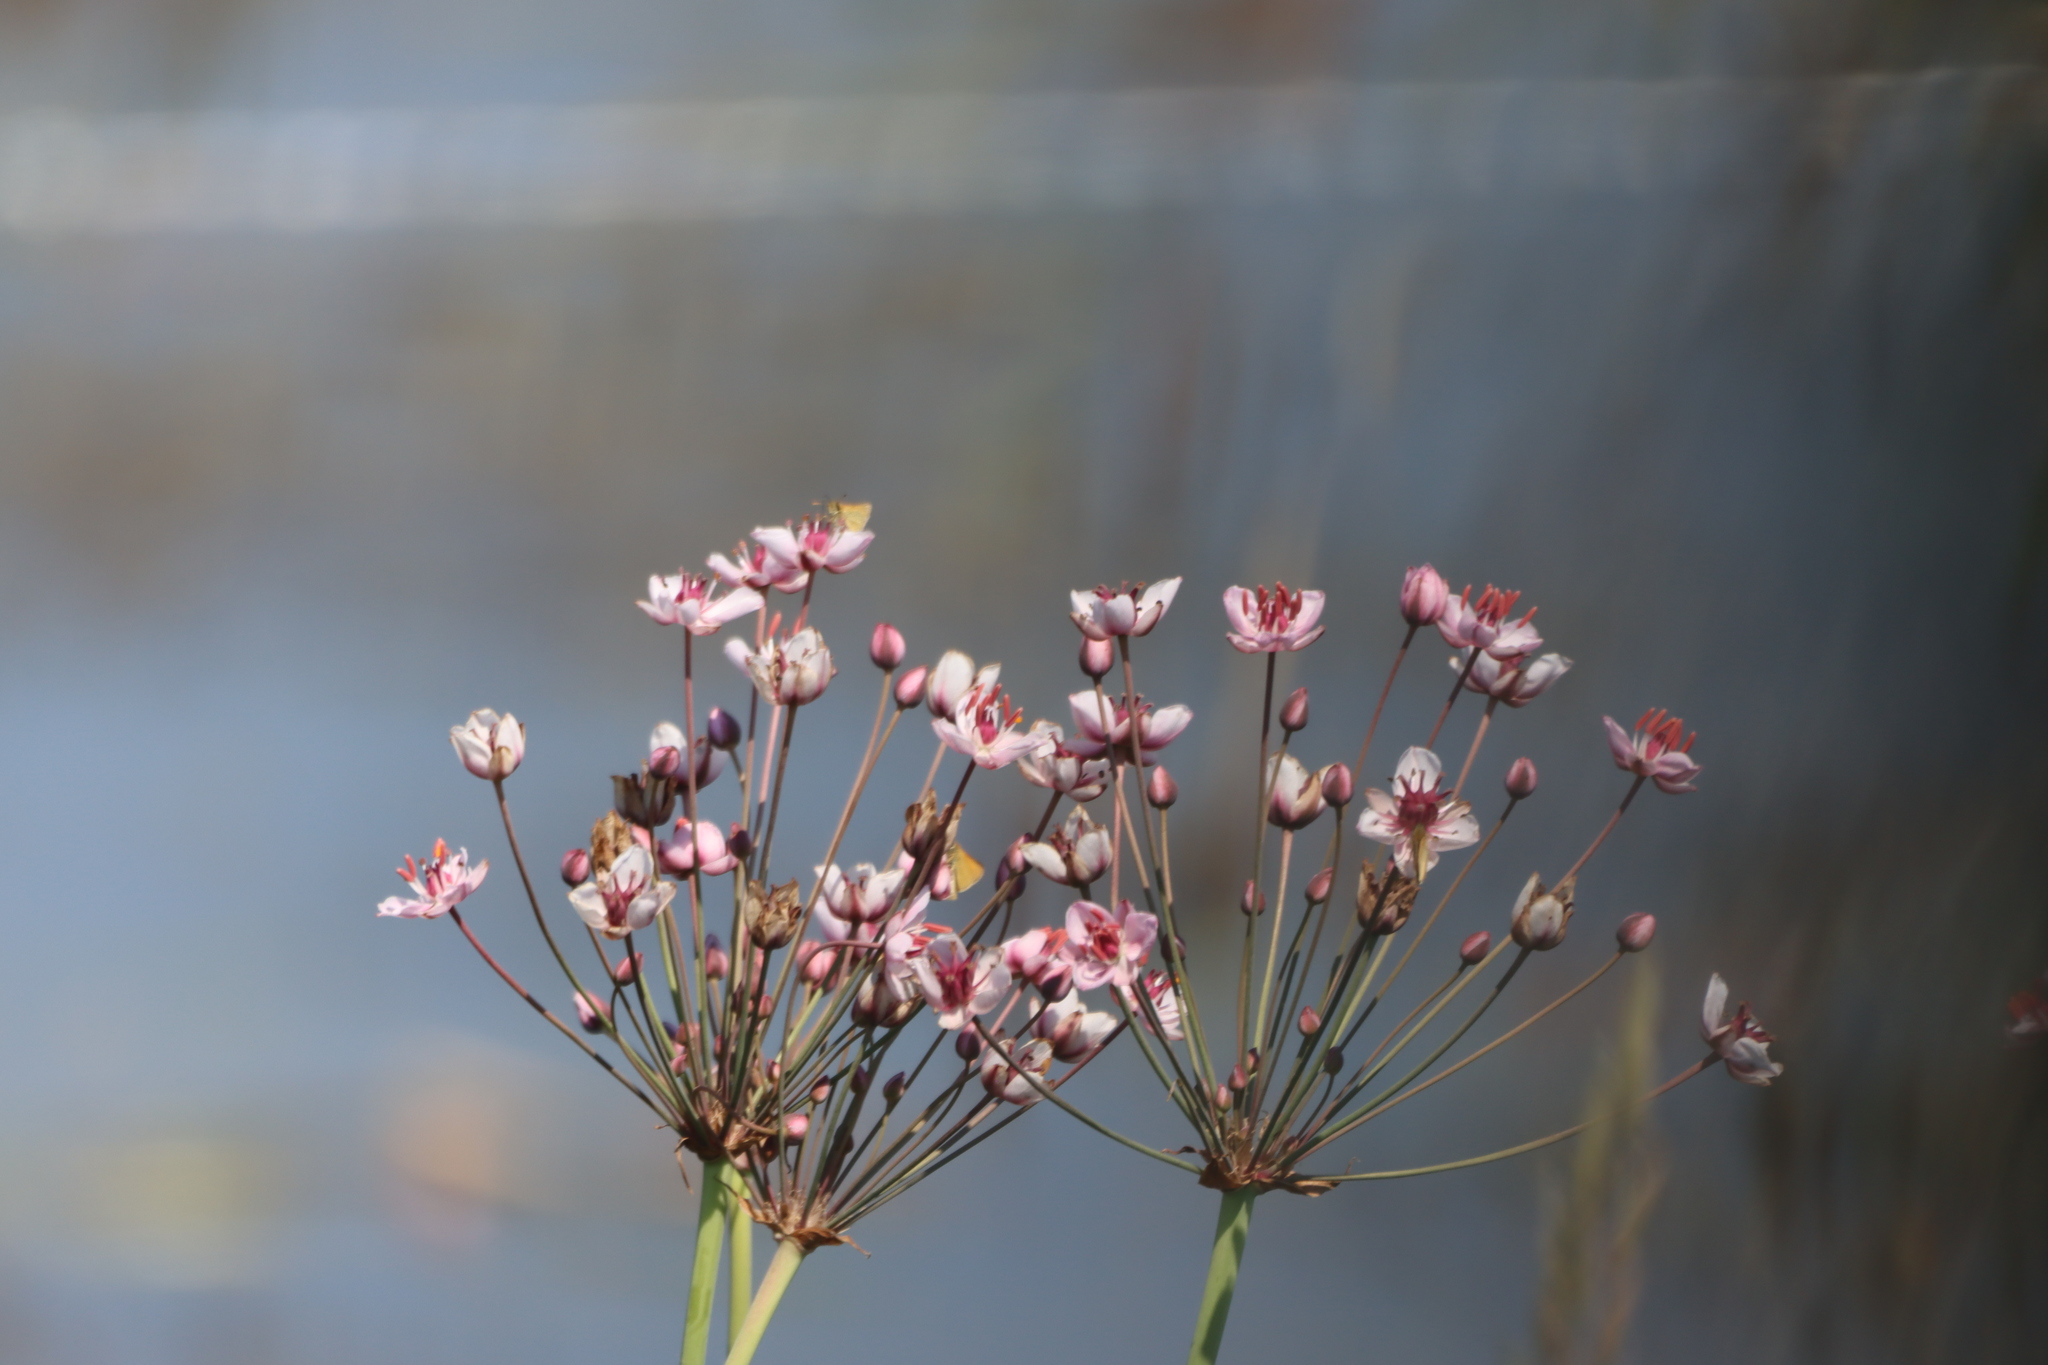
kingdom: Plantae
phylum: Tracheophyta
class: Liliopsida
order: Alismatales
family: Butomaceae
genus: Butomus
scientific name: Butomus umbellatus
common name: Flowering-rush
